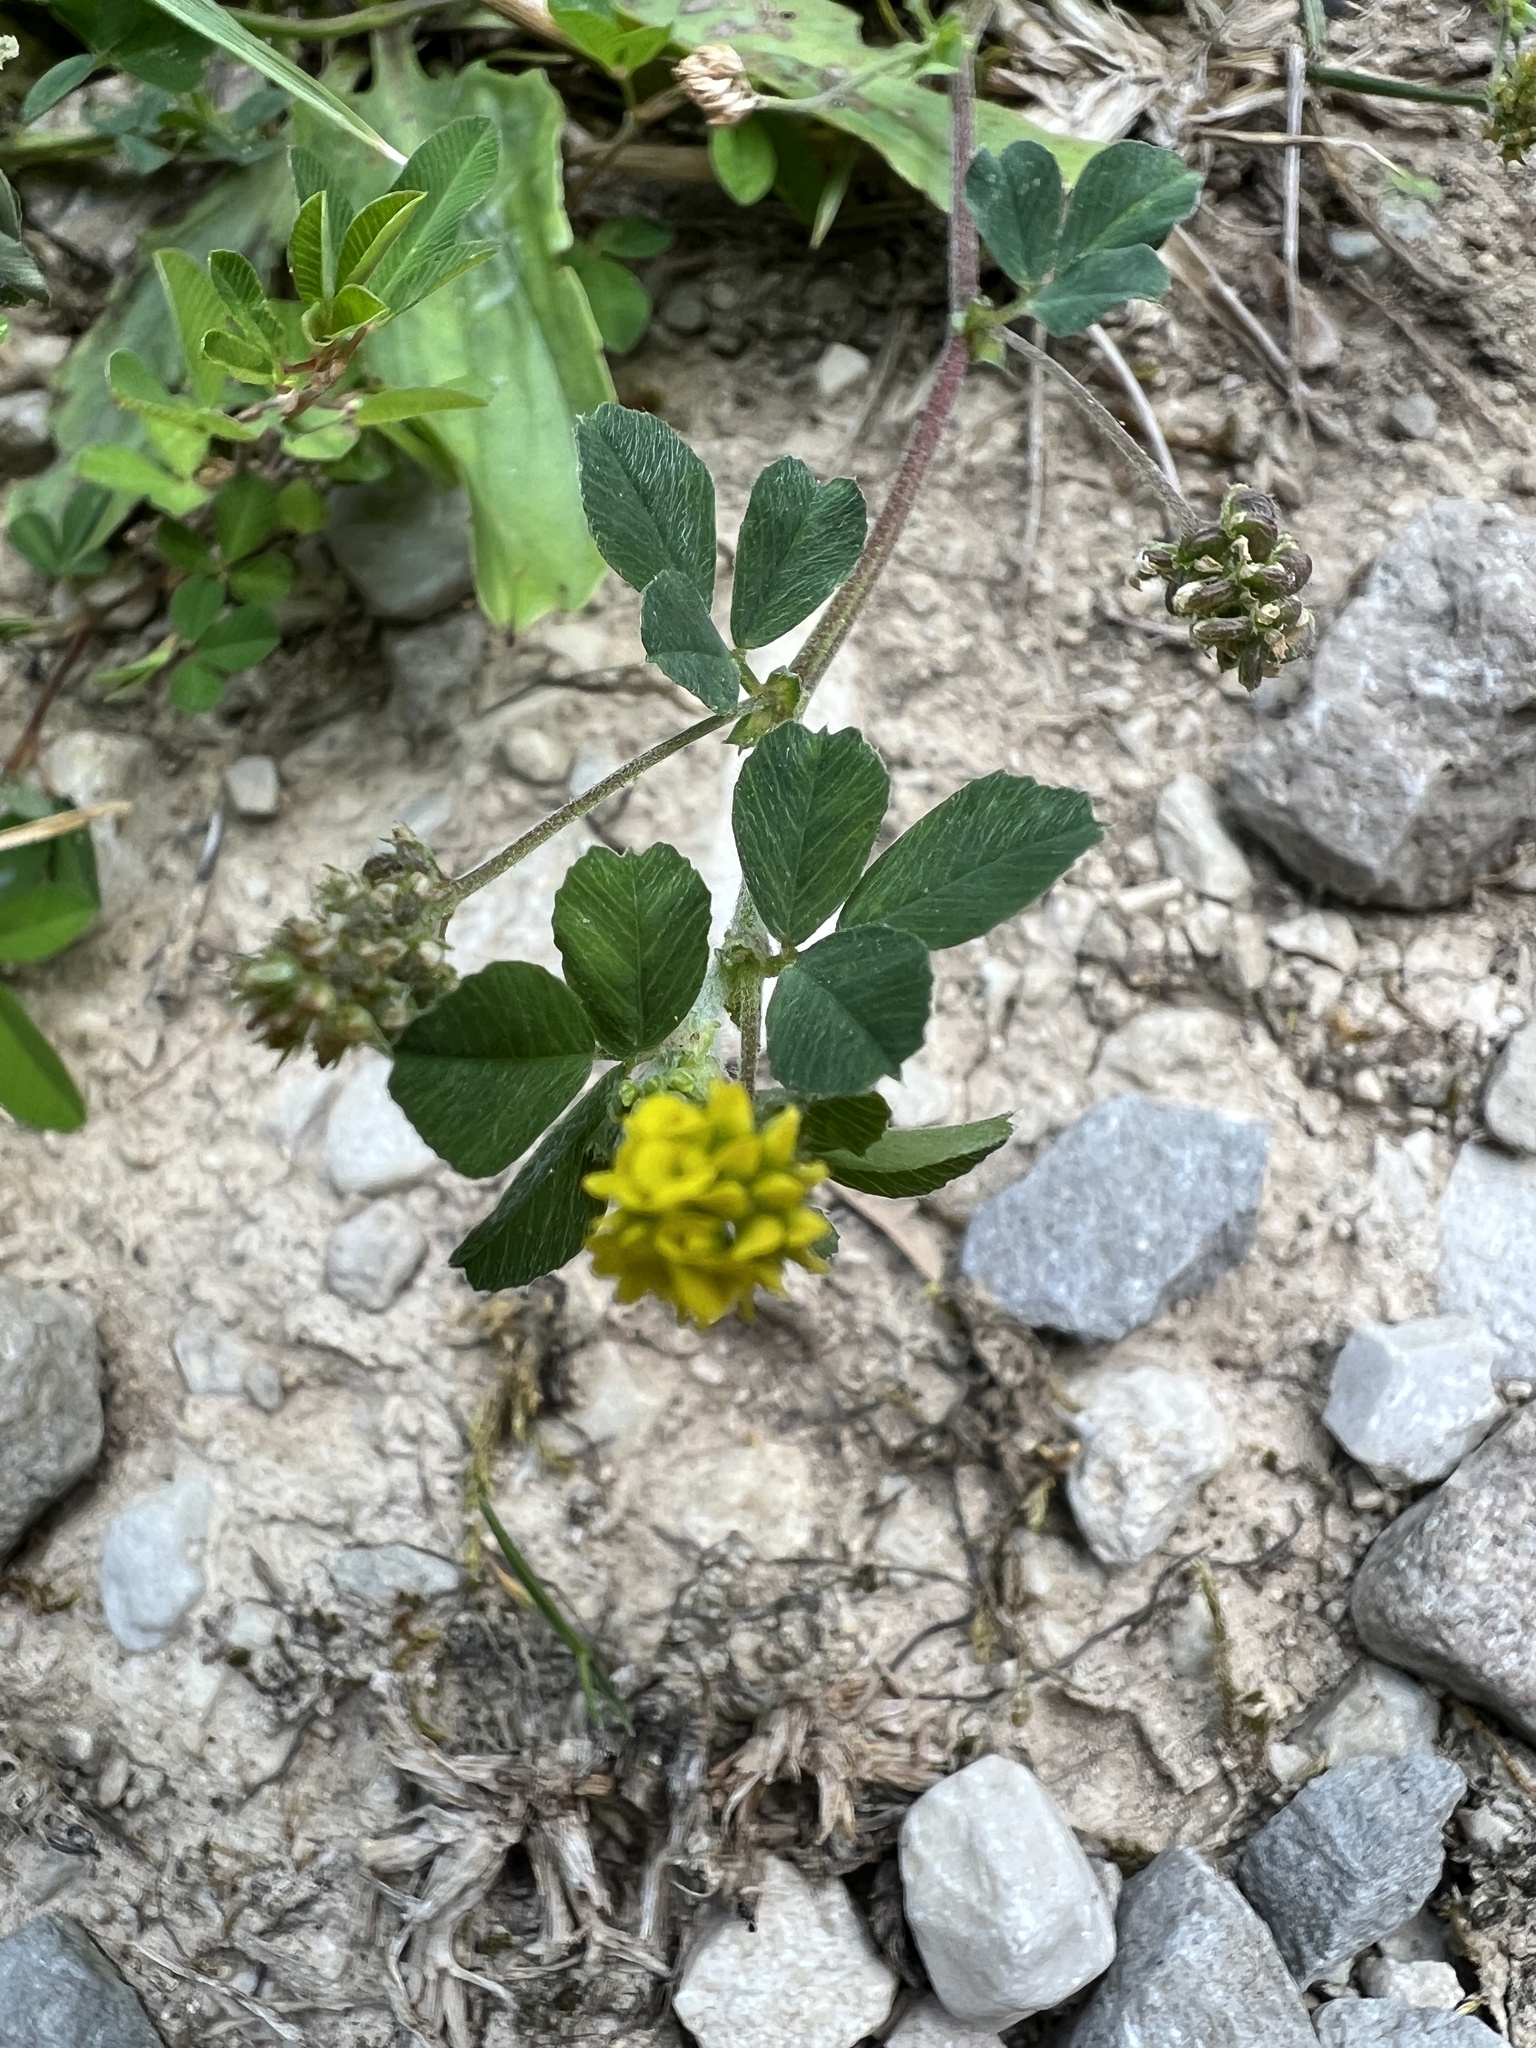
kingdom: Plantae
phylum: Tracheophyta
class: Magnoliopsida
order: Fabales
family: Fabaceae
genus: Medicago
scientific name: Medicago lupulina
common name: Black medick
